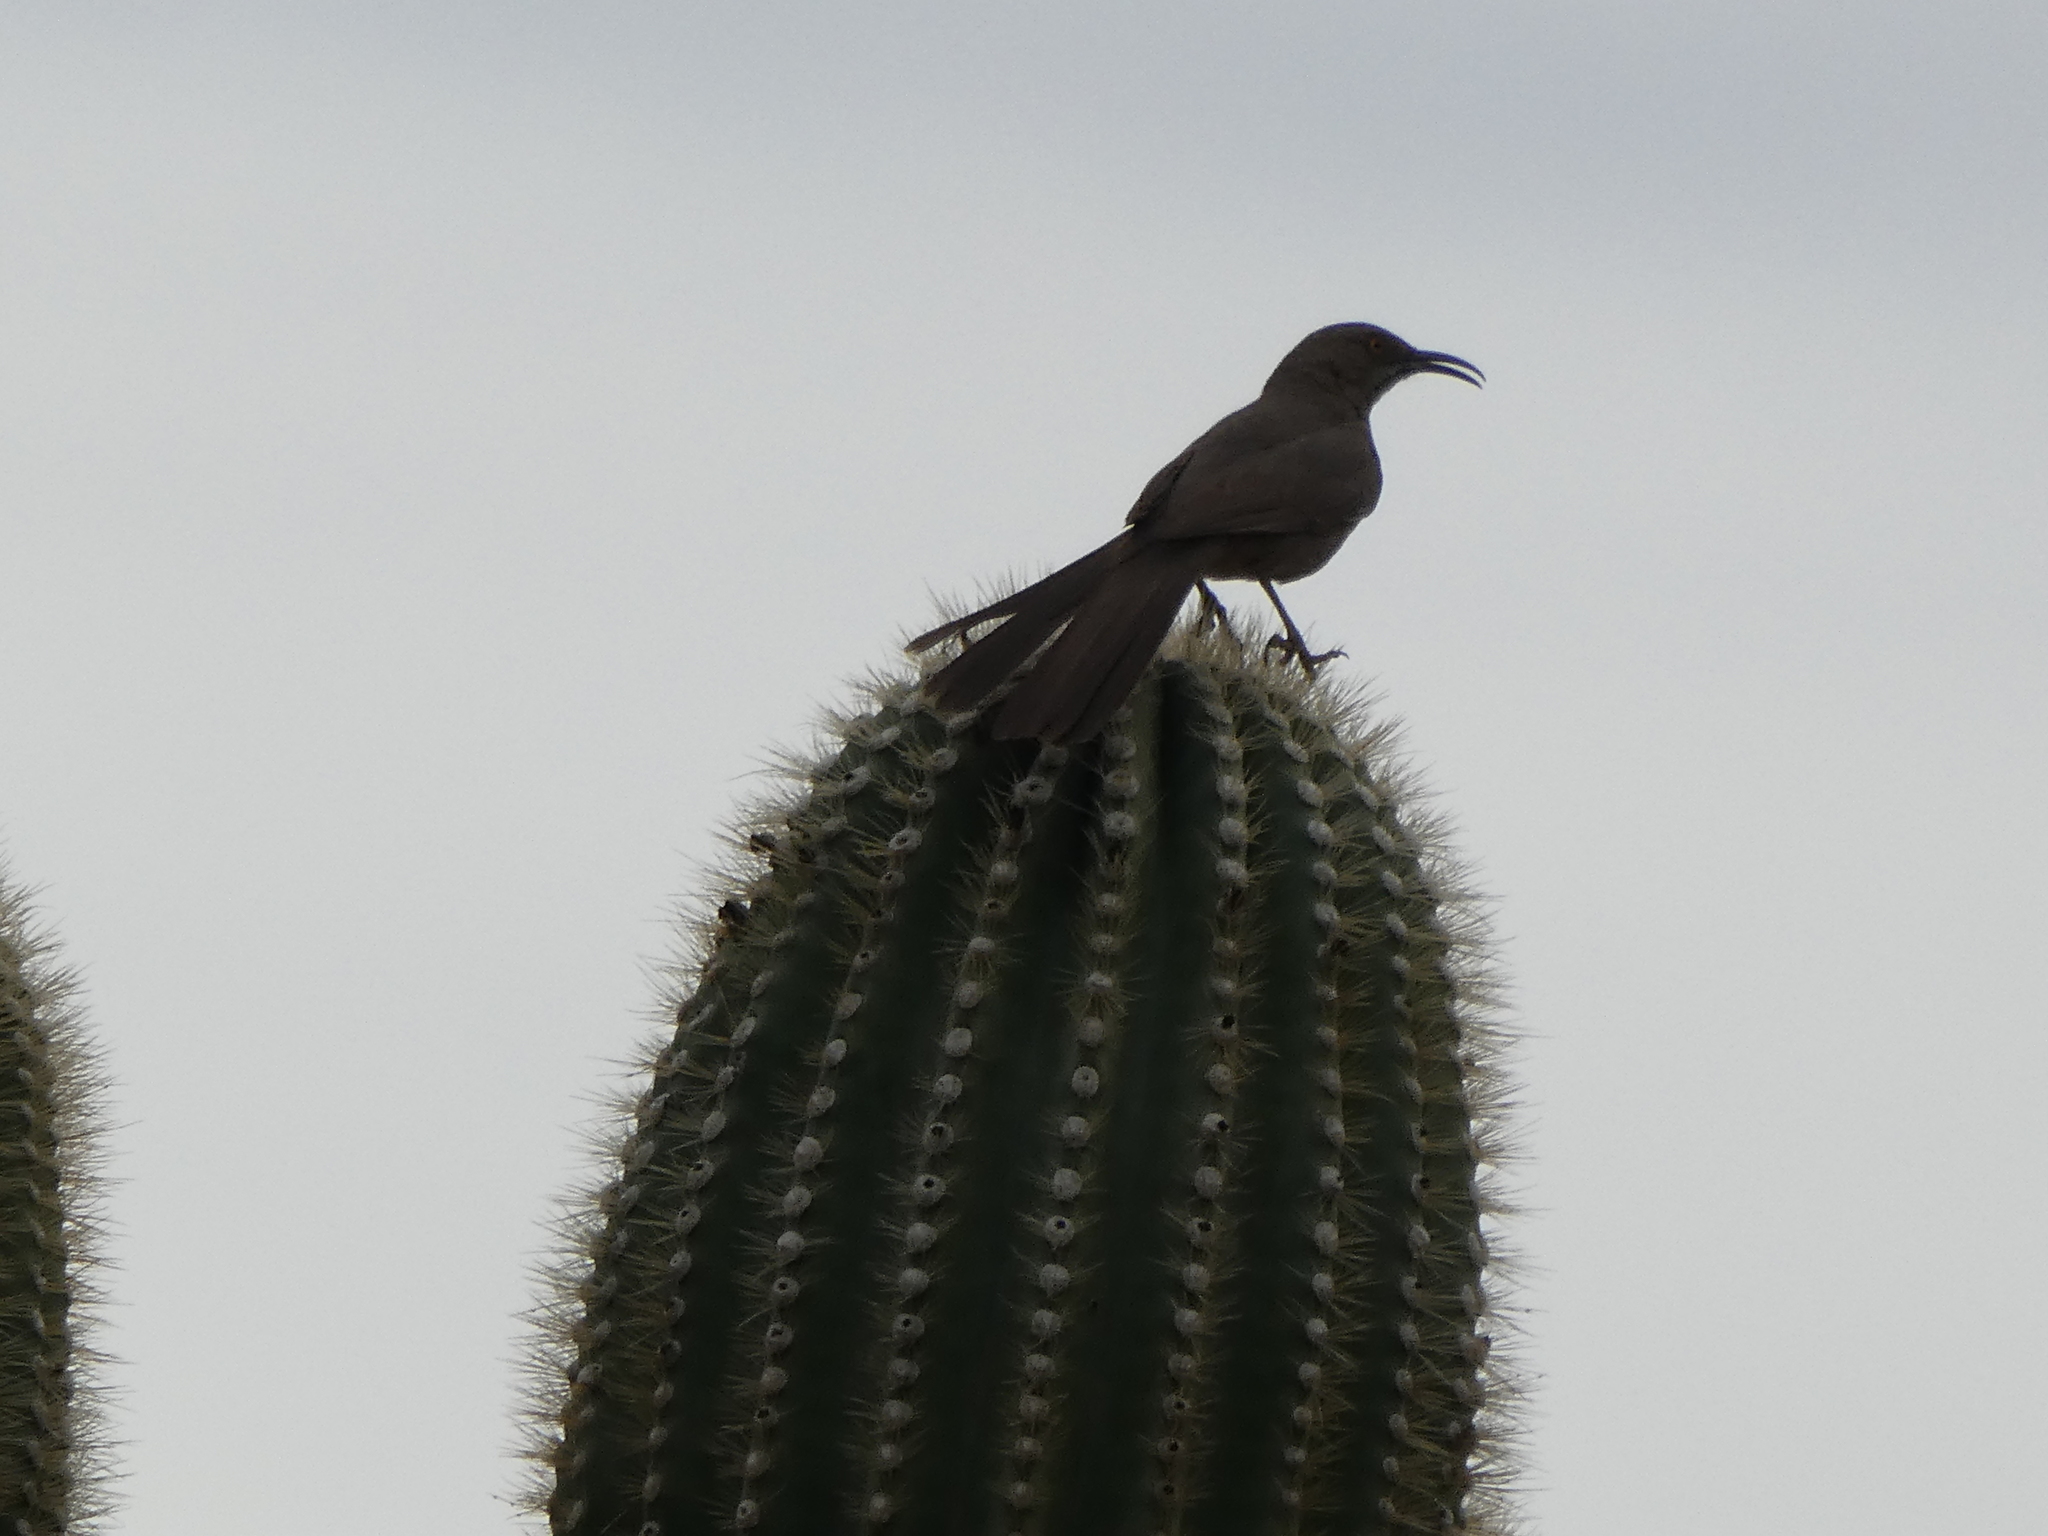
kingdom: Animalia
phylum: Chordata
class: Aves
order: Passeriformes
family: Mimidae
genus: Toxostoma
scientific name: Toxostoma curvirostre
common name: Curve-billed thrasher
